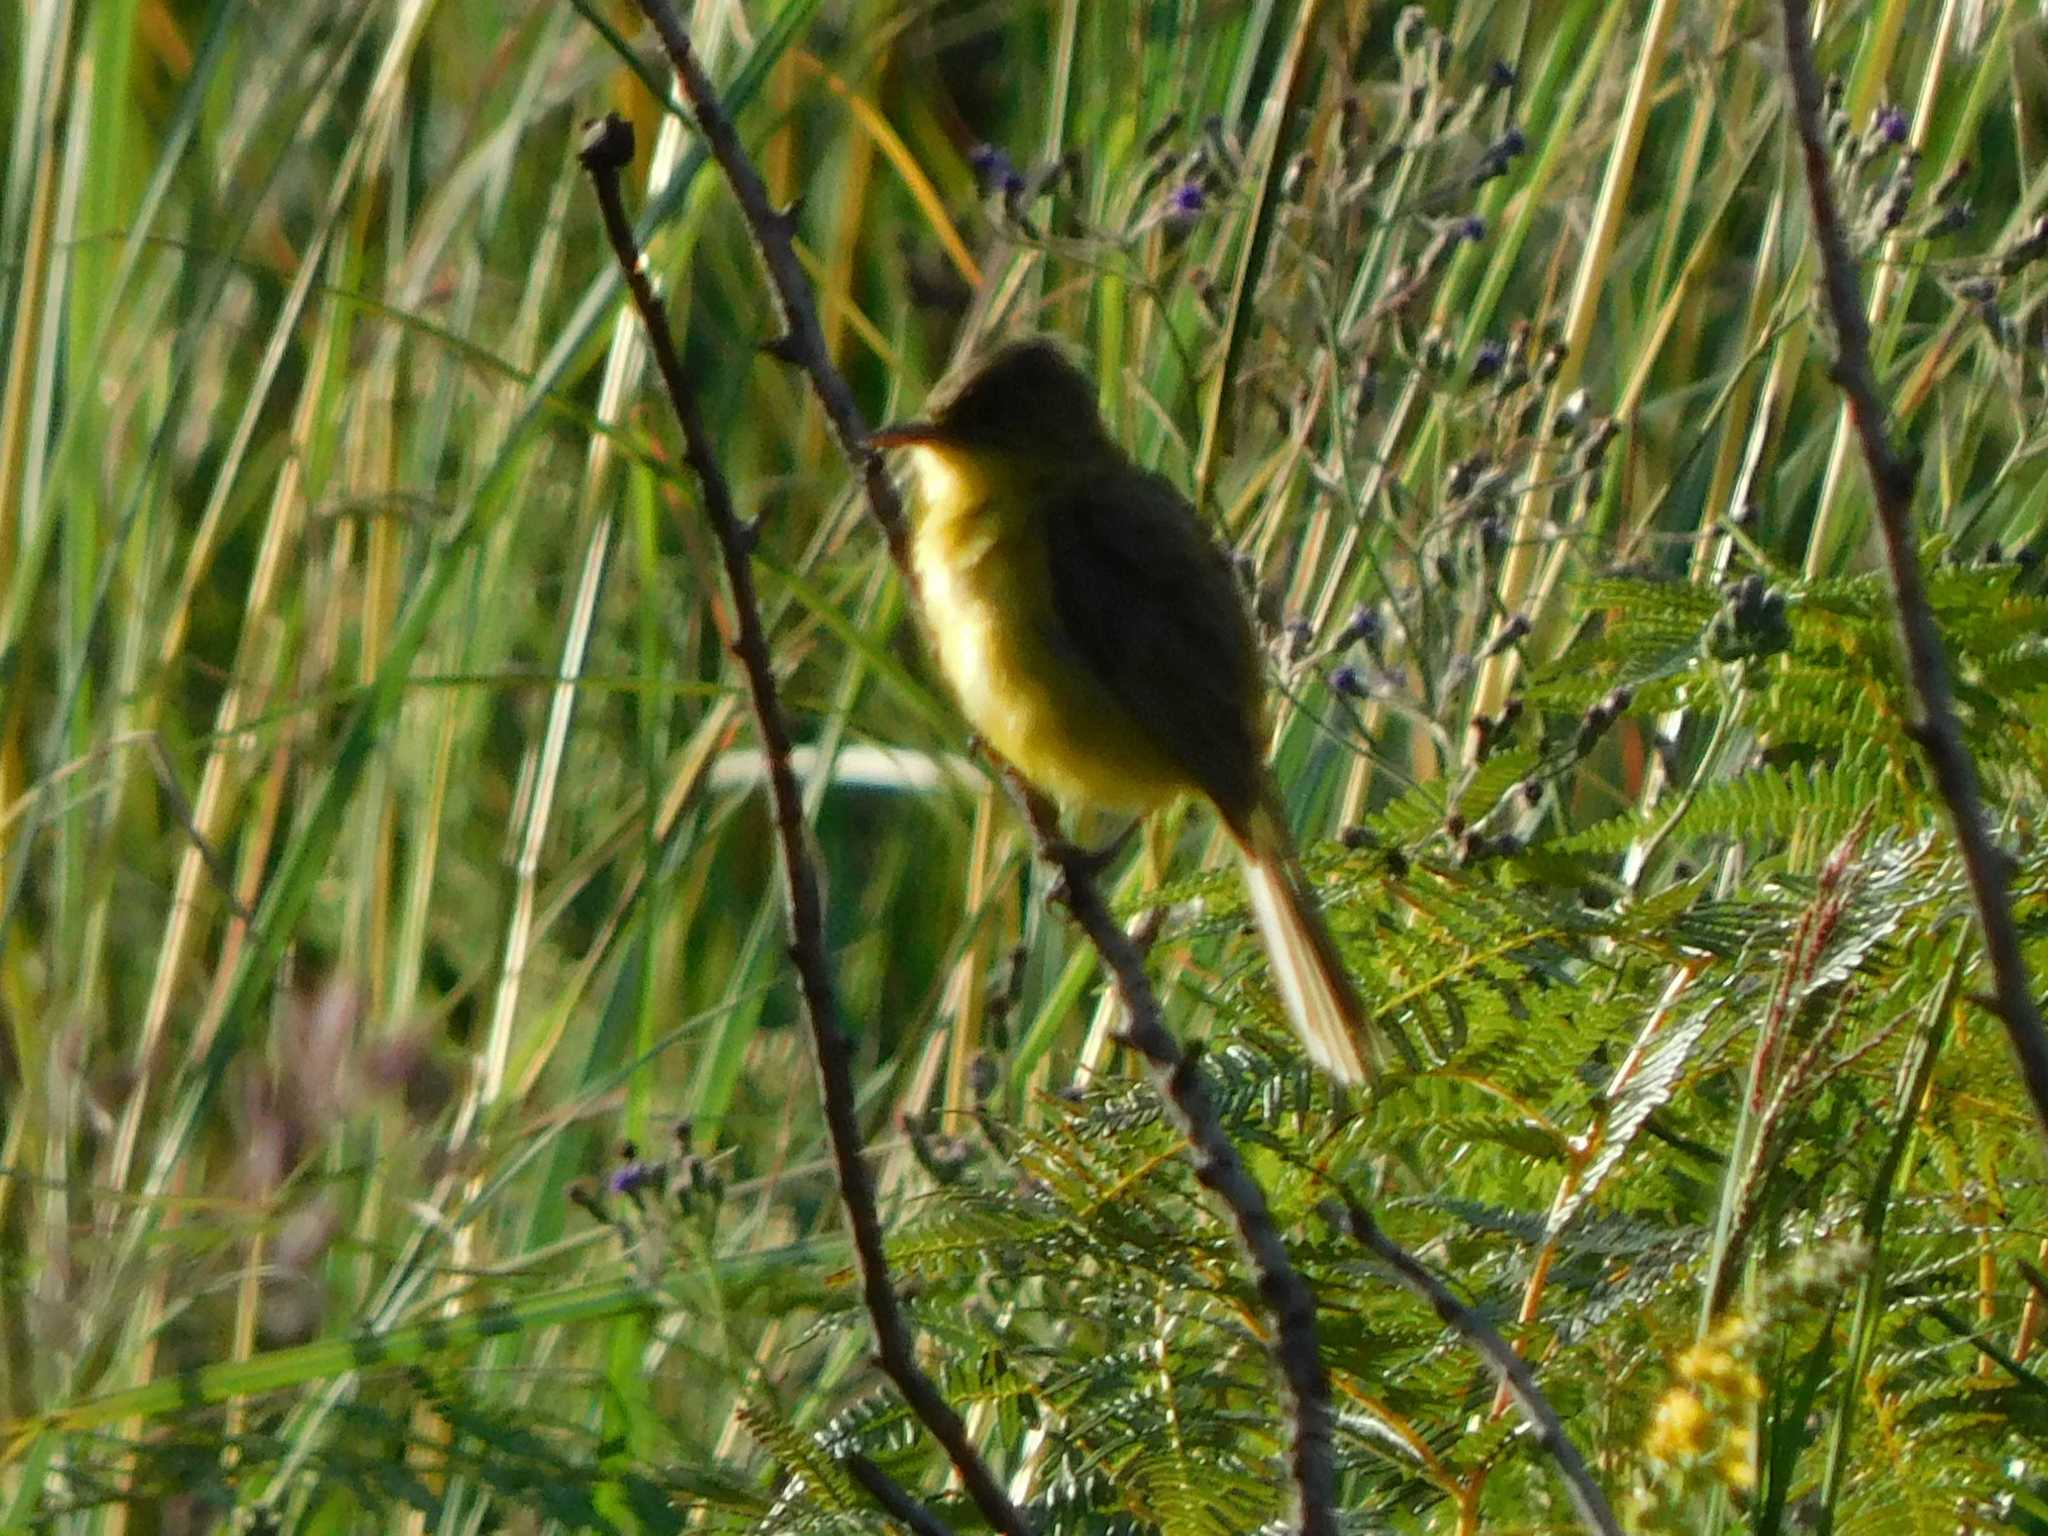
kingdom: Animalia
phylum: Chordata
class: Aves
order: Passeriformes
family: Acrocephalidae
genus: Iduna
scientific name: Iduna natalensis
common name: African yellow warbler
